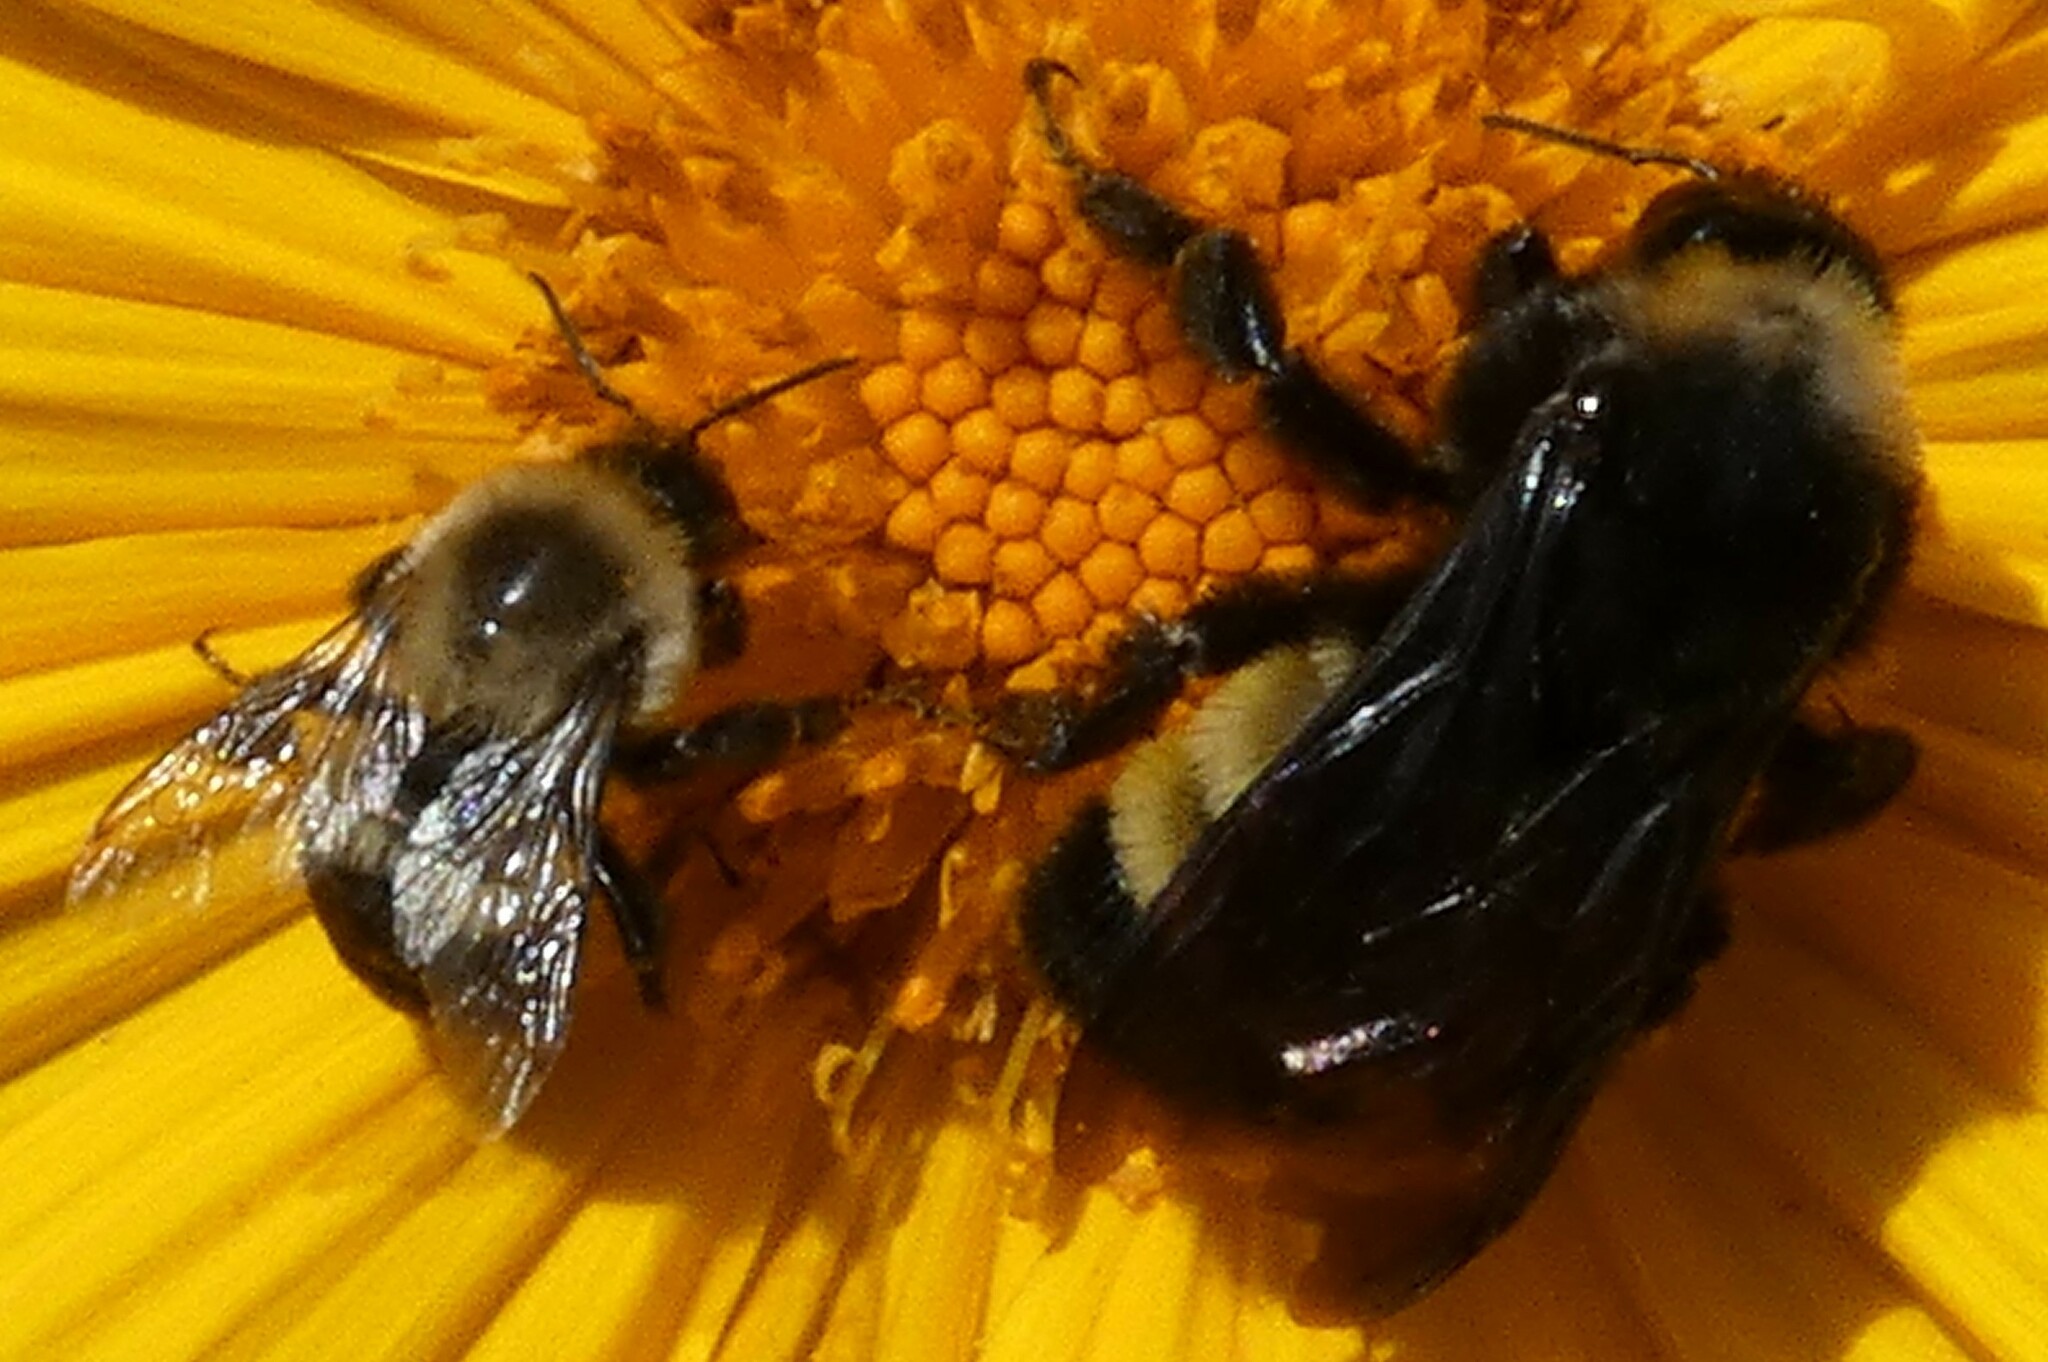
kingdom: Animalia
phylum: Arthropoda
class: Insecta
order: Hymenoptera
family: Apidae
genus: Bombus
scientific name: Bombus impatiens
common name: Common eastern bumble bee
